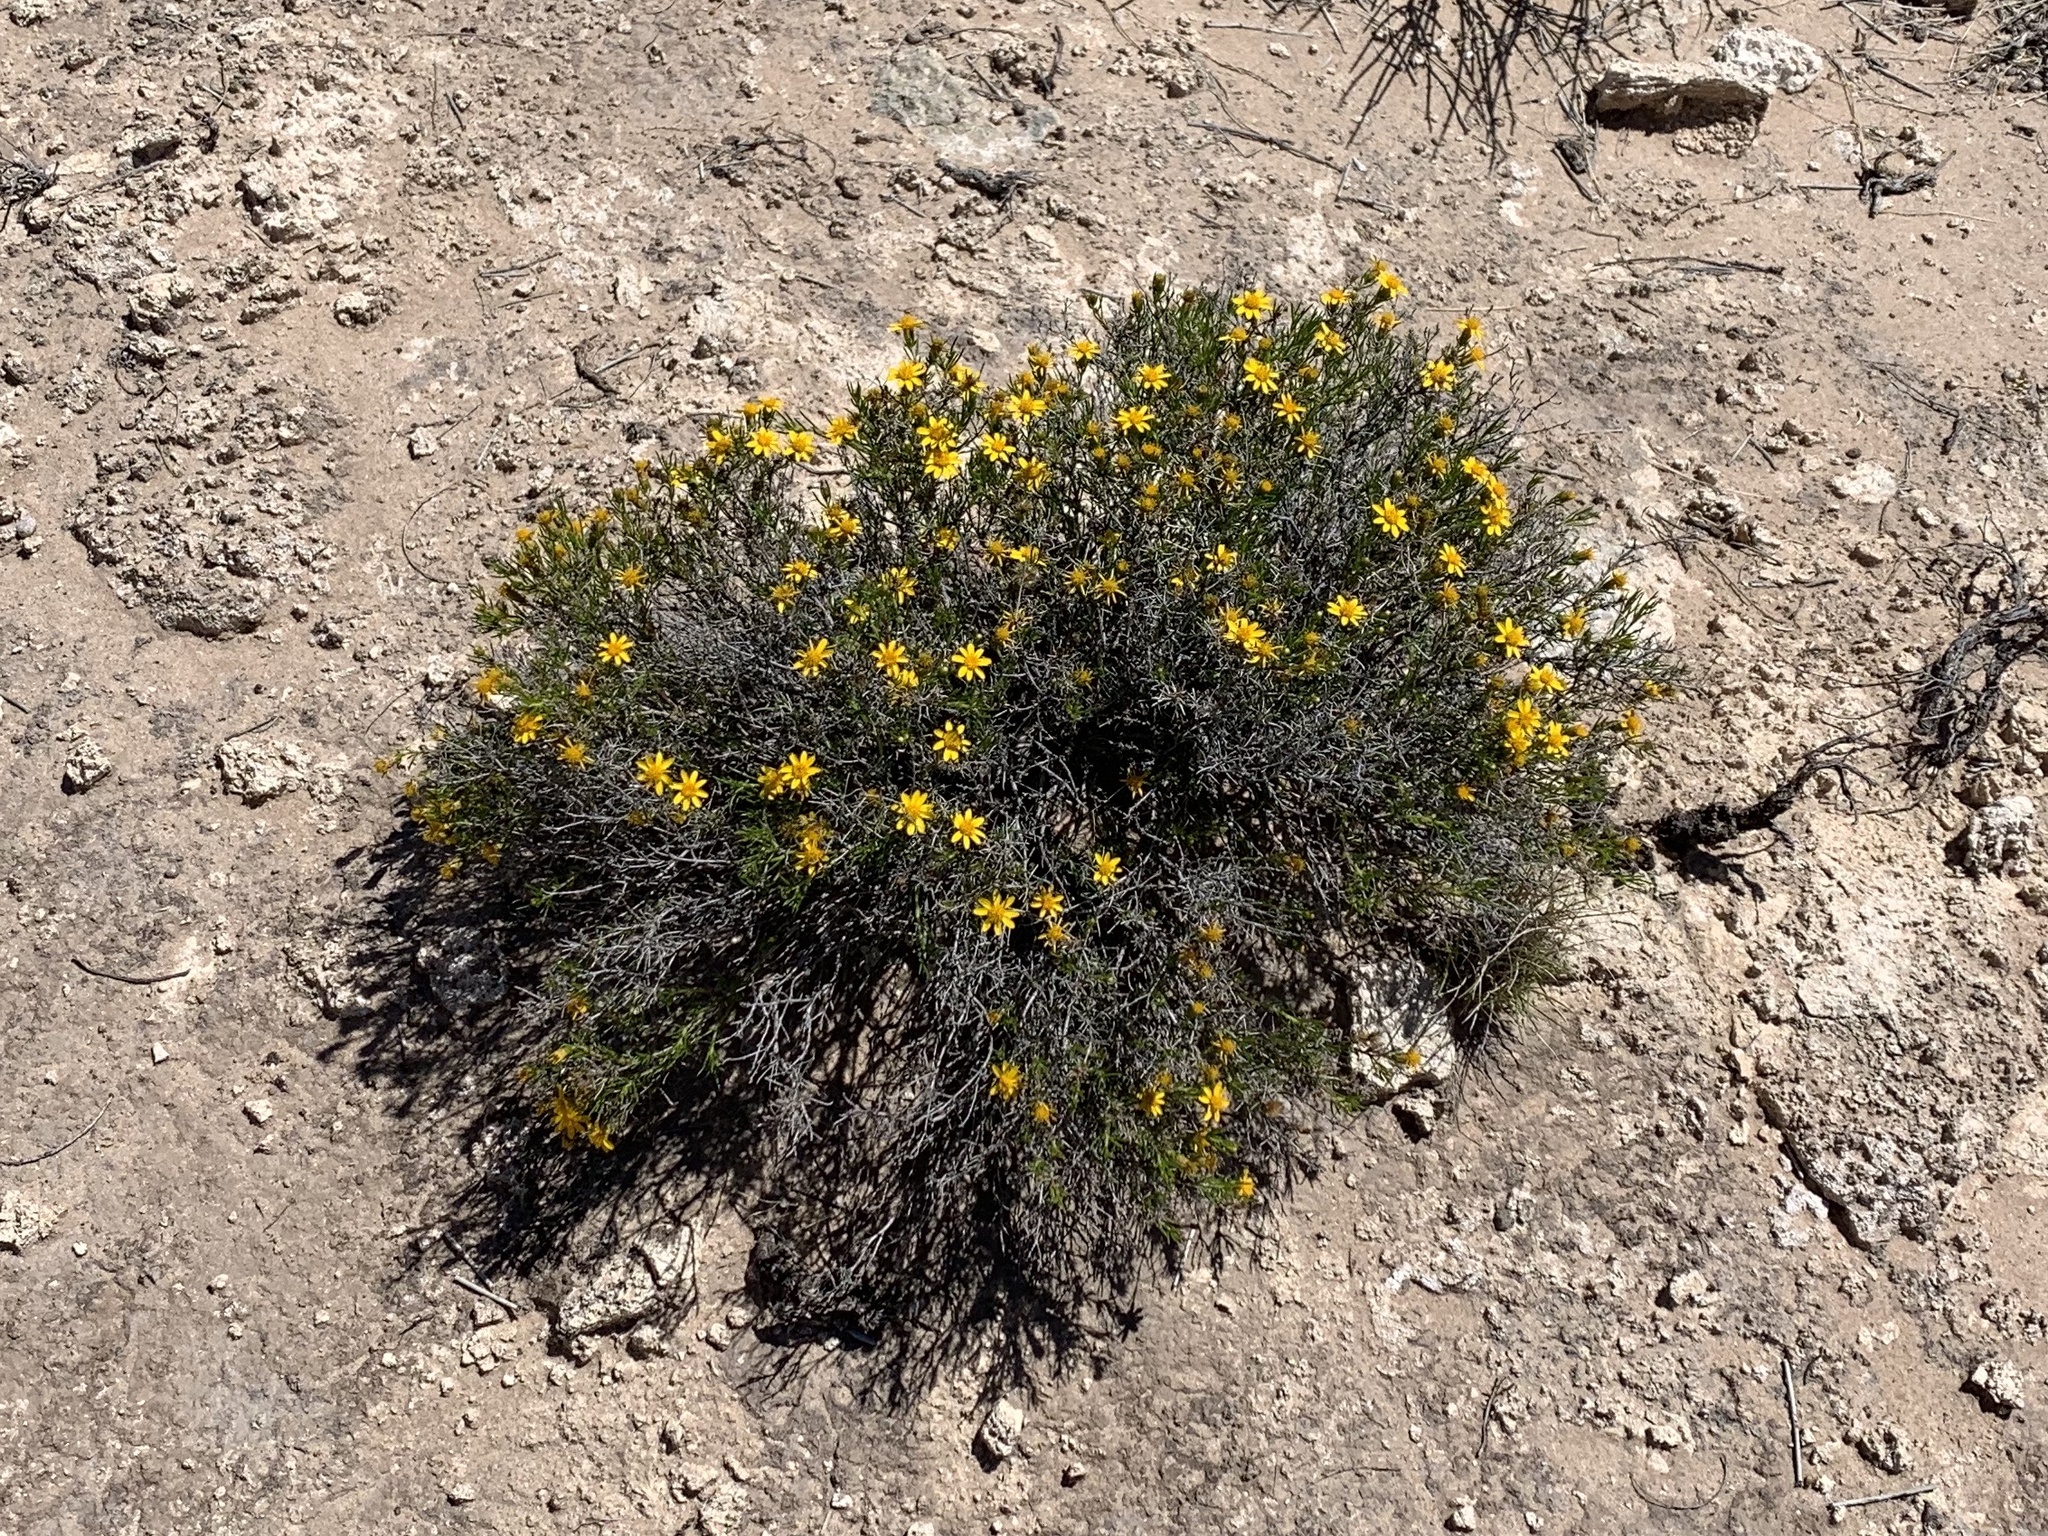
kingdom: Plantae
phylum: Tracheophyta
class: Magnoliopsida
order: Asterales
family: Asteraceae
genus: Thymophylla
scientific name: Thymophylla acerosa
